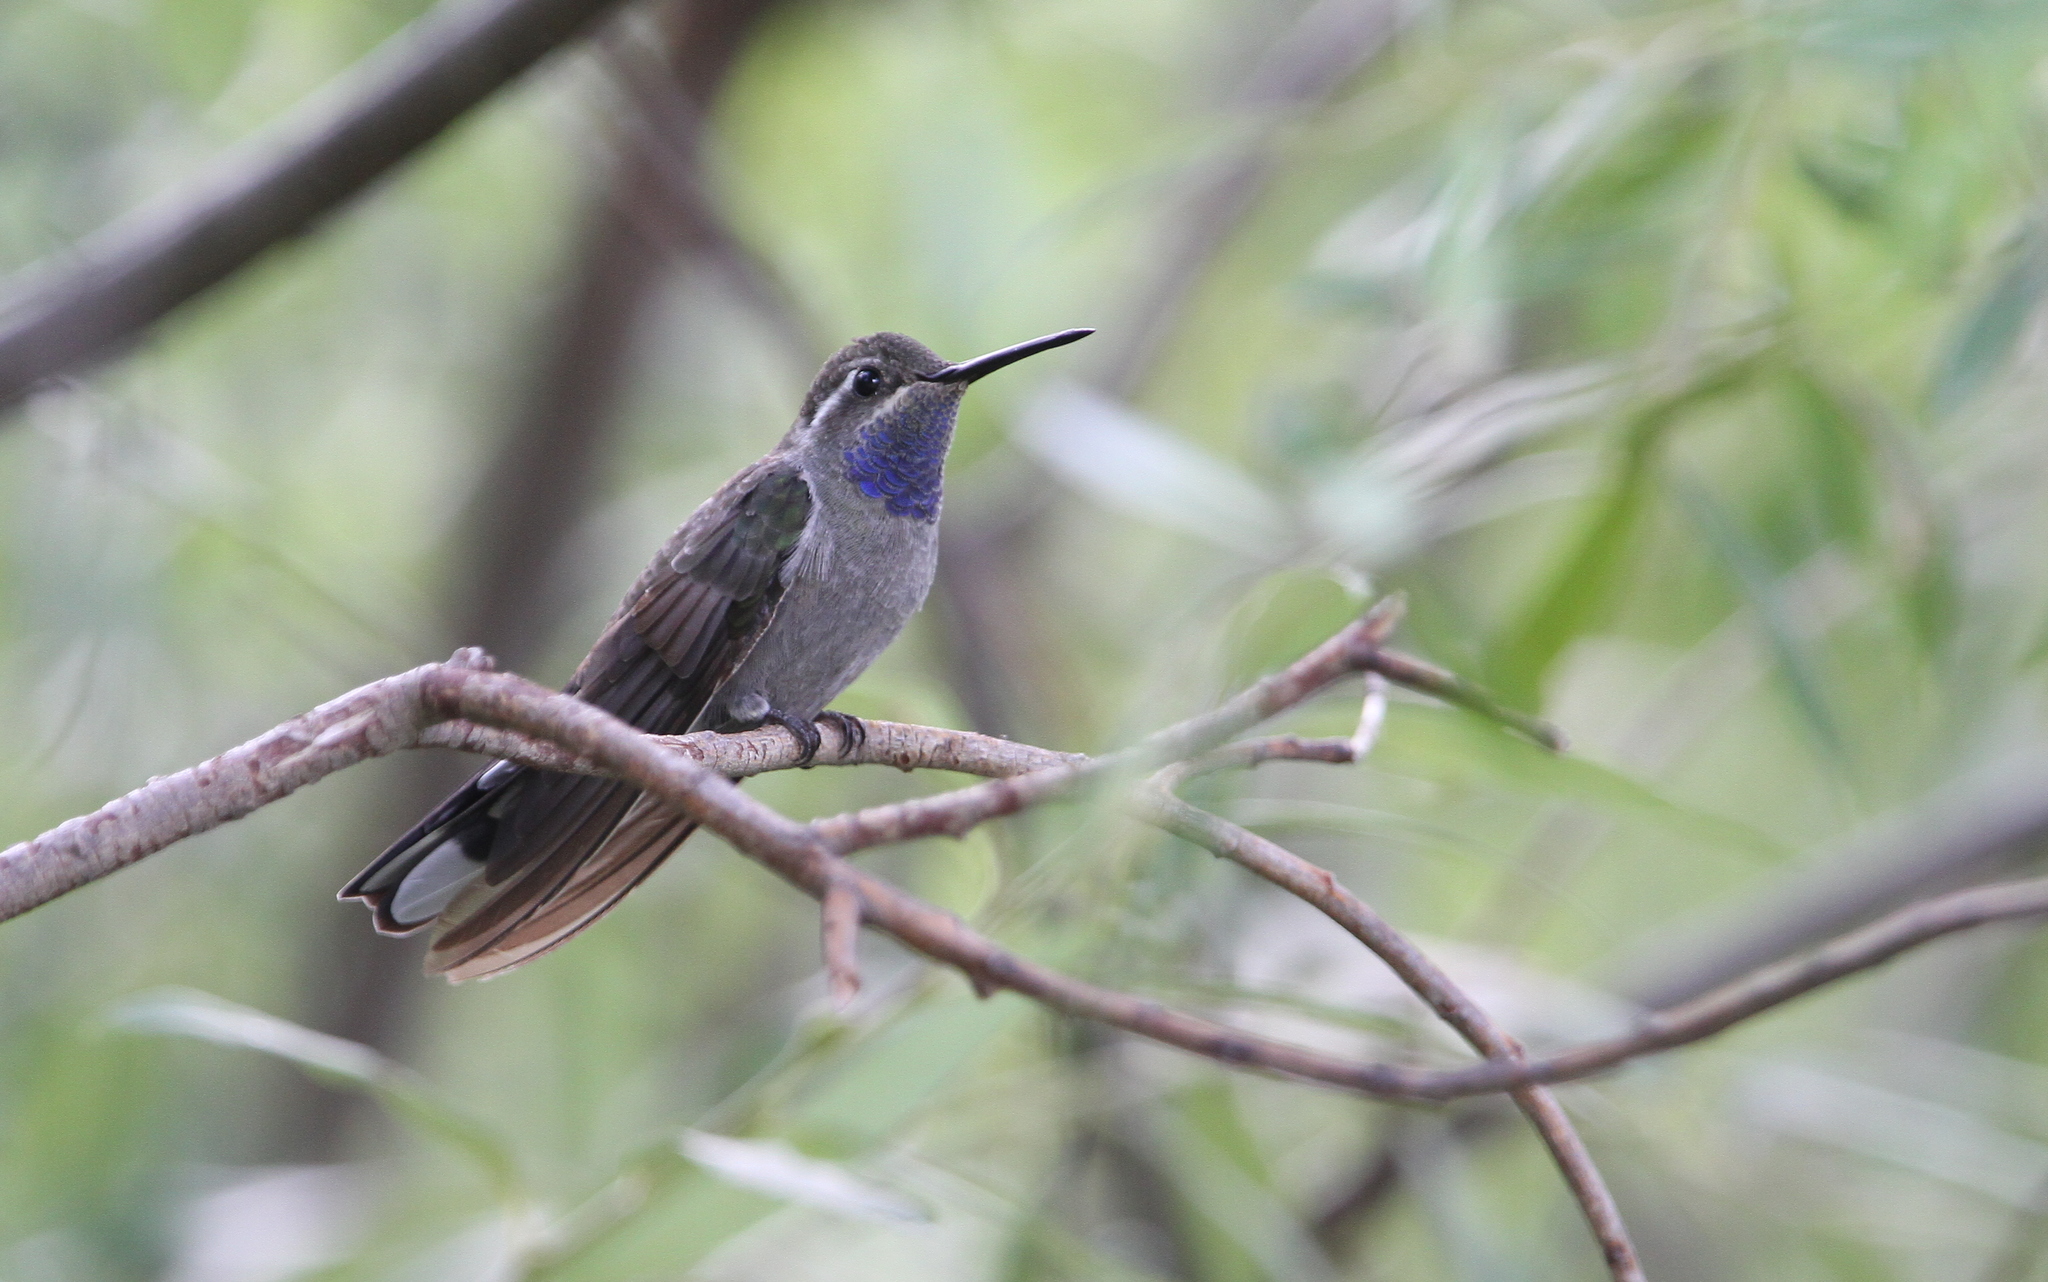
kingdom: Animalia
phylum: Chordata
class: Aves
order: Apodiformes
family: Trochilidae
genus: Lampornis
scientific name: Lampornis clemenciae
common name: Blue-throated mountaingem
